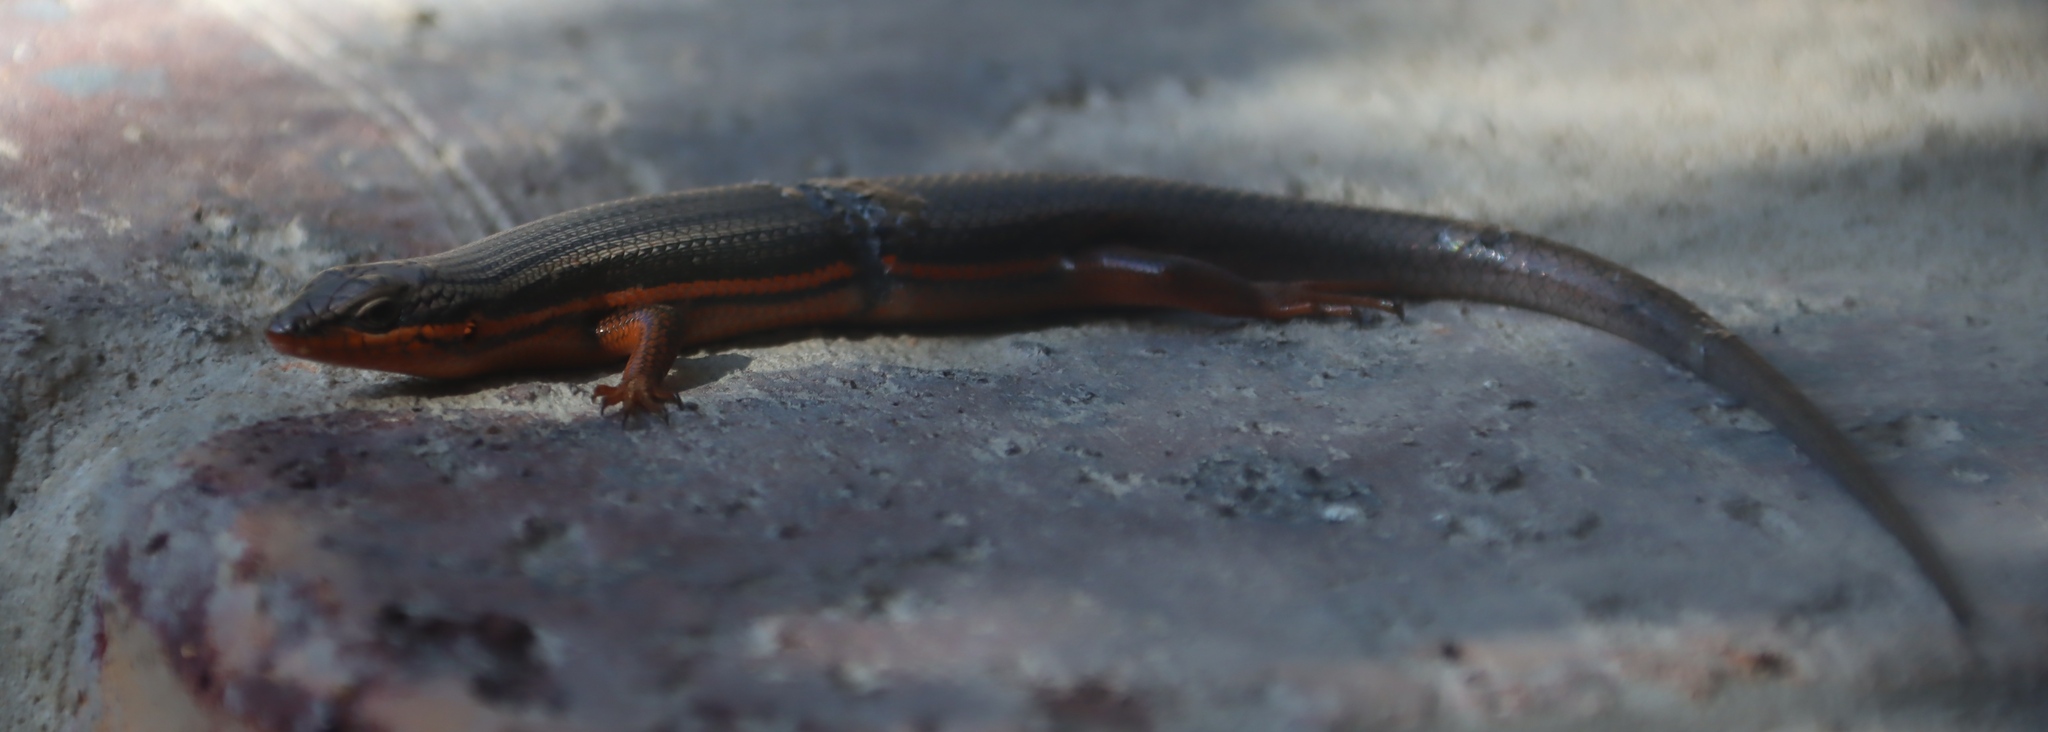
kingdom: Animalia
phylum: Chordata
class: Squamata
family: Scincidae
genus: Trachylepis
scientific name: Trachylepis homalocephala
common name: Red-sided skink
